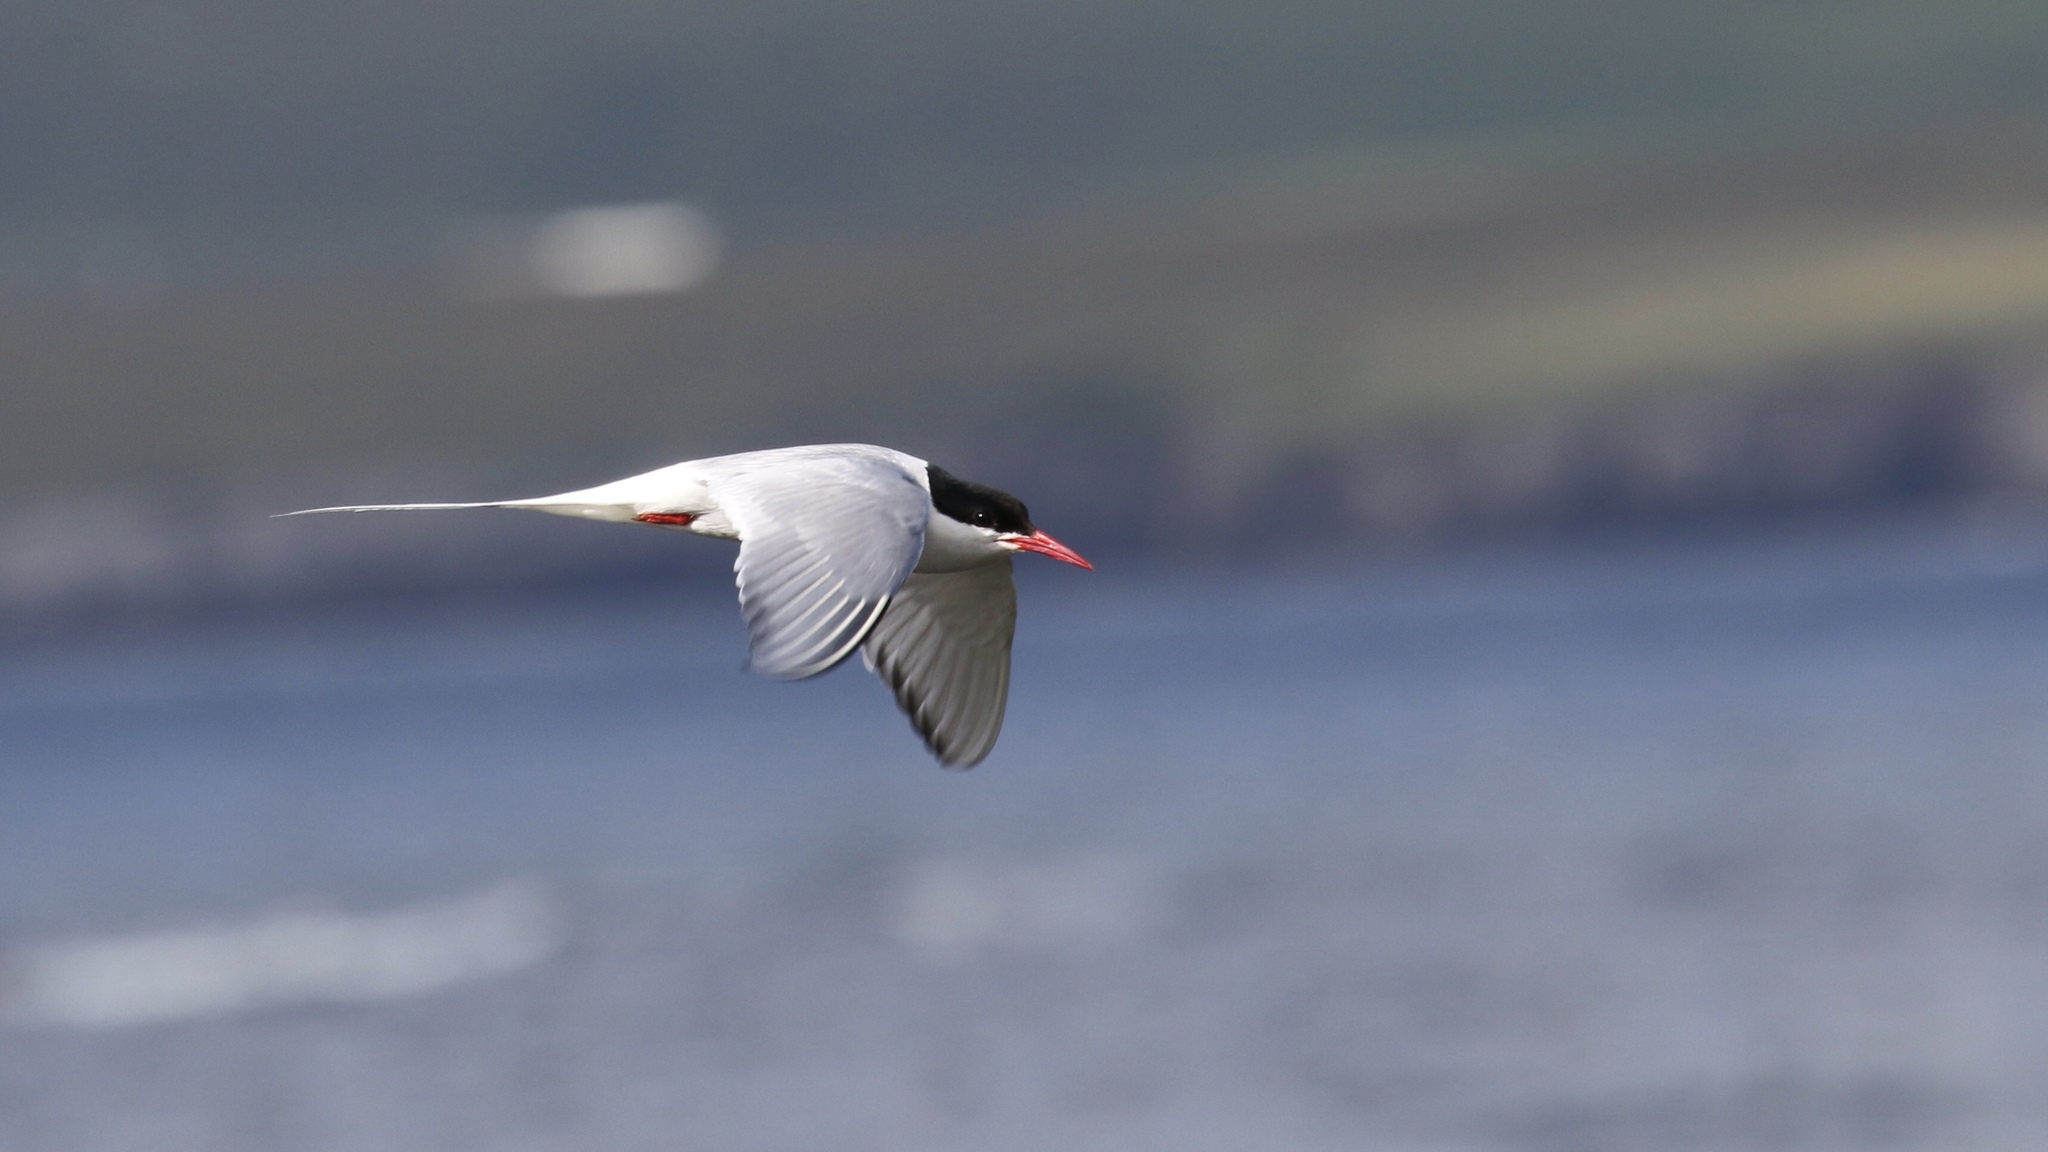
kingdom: Animalia
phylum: Chordata
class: Aves
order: Charadriiformes
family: Laridae
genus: Sterna
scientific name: Sterna paradisaea
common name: Arctic tern
